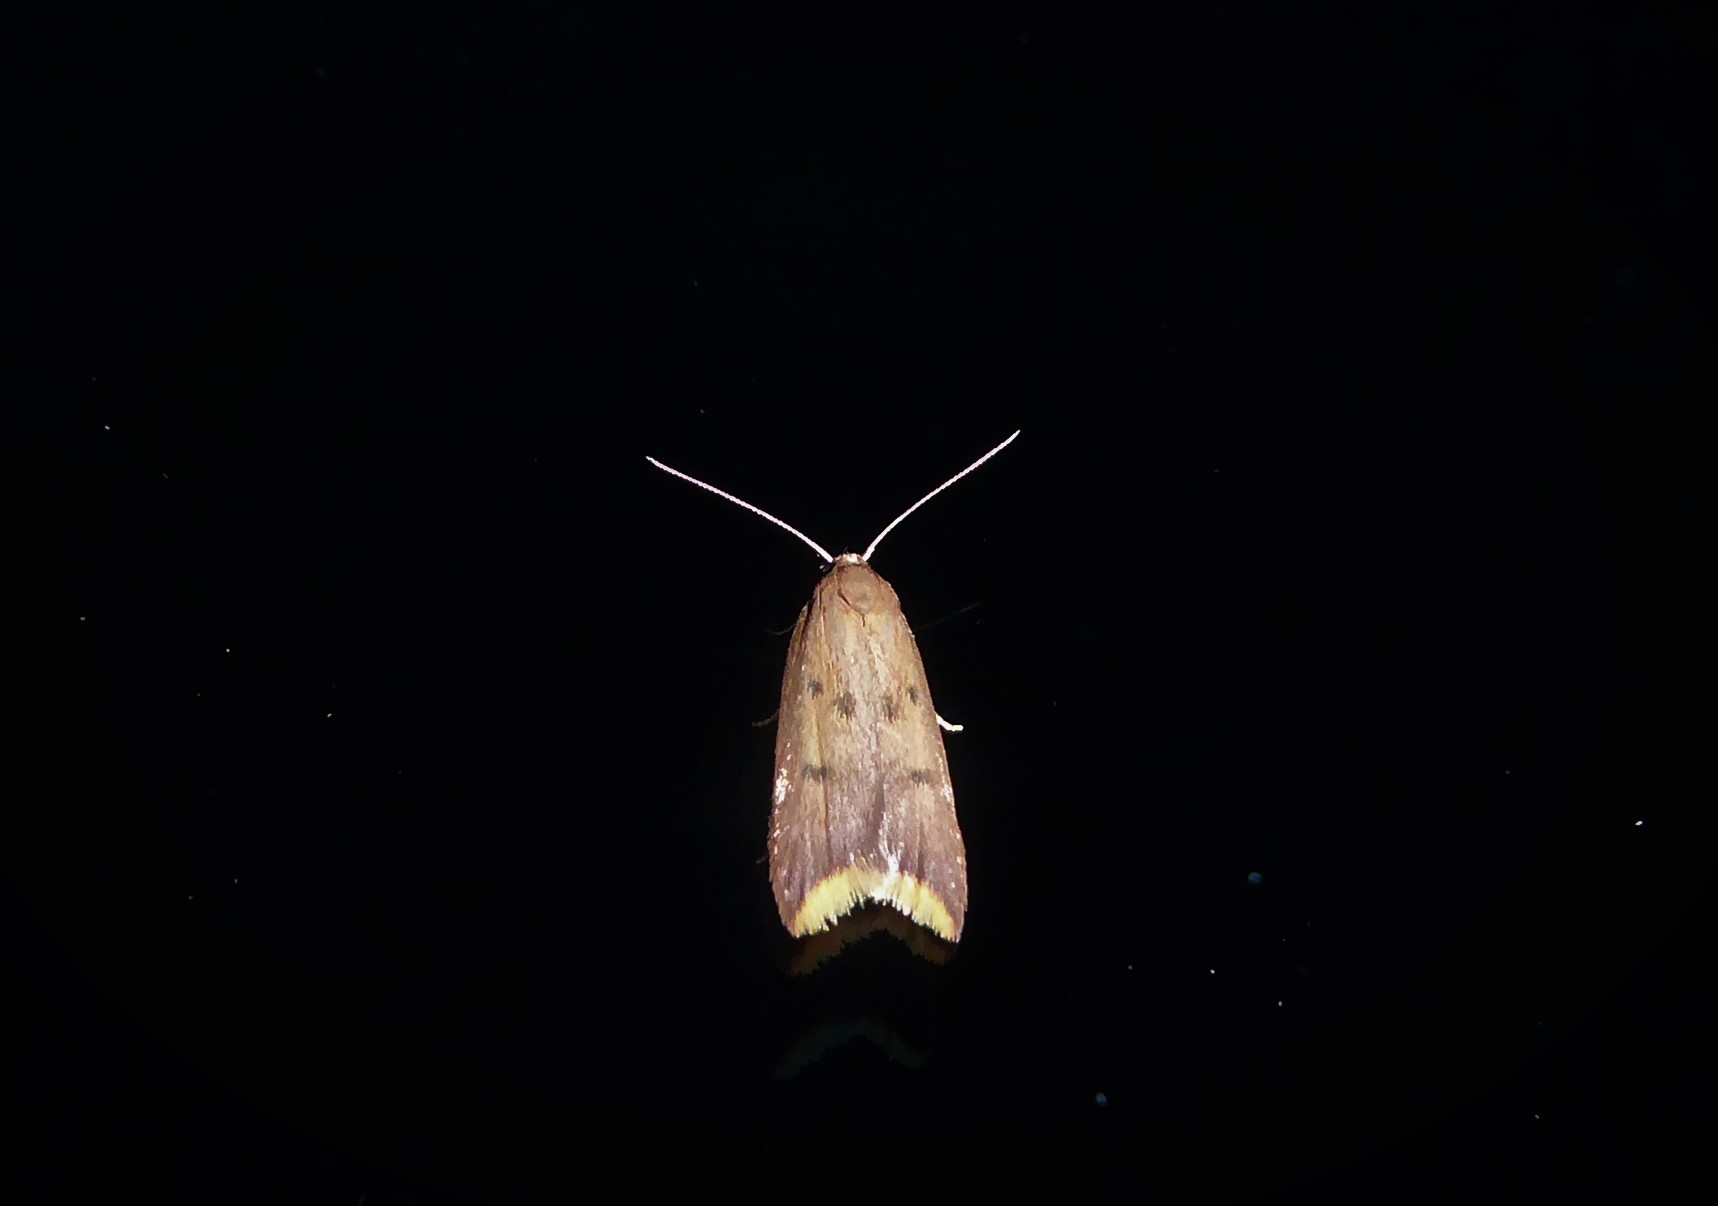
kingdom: Animalia
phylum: Arthropoda
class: Insecta
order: Lepidoptera
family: Oecophoridae
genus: Tachystola
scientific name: Tachystola acroxantha
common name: Ruddy streak
